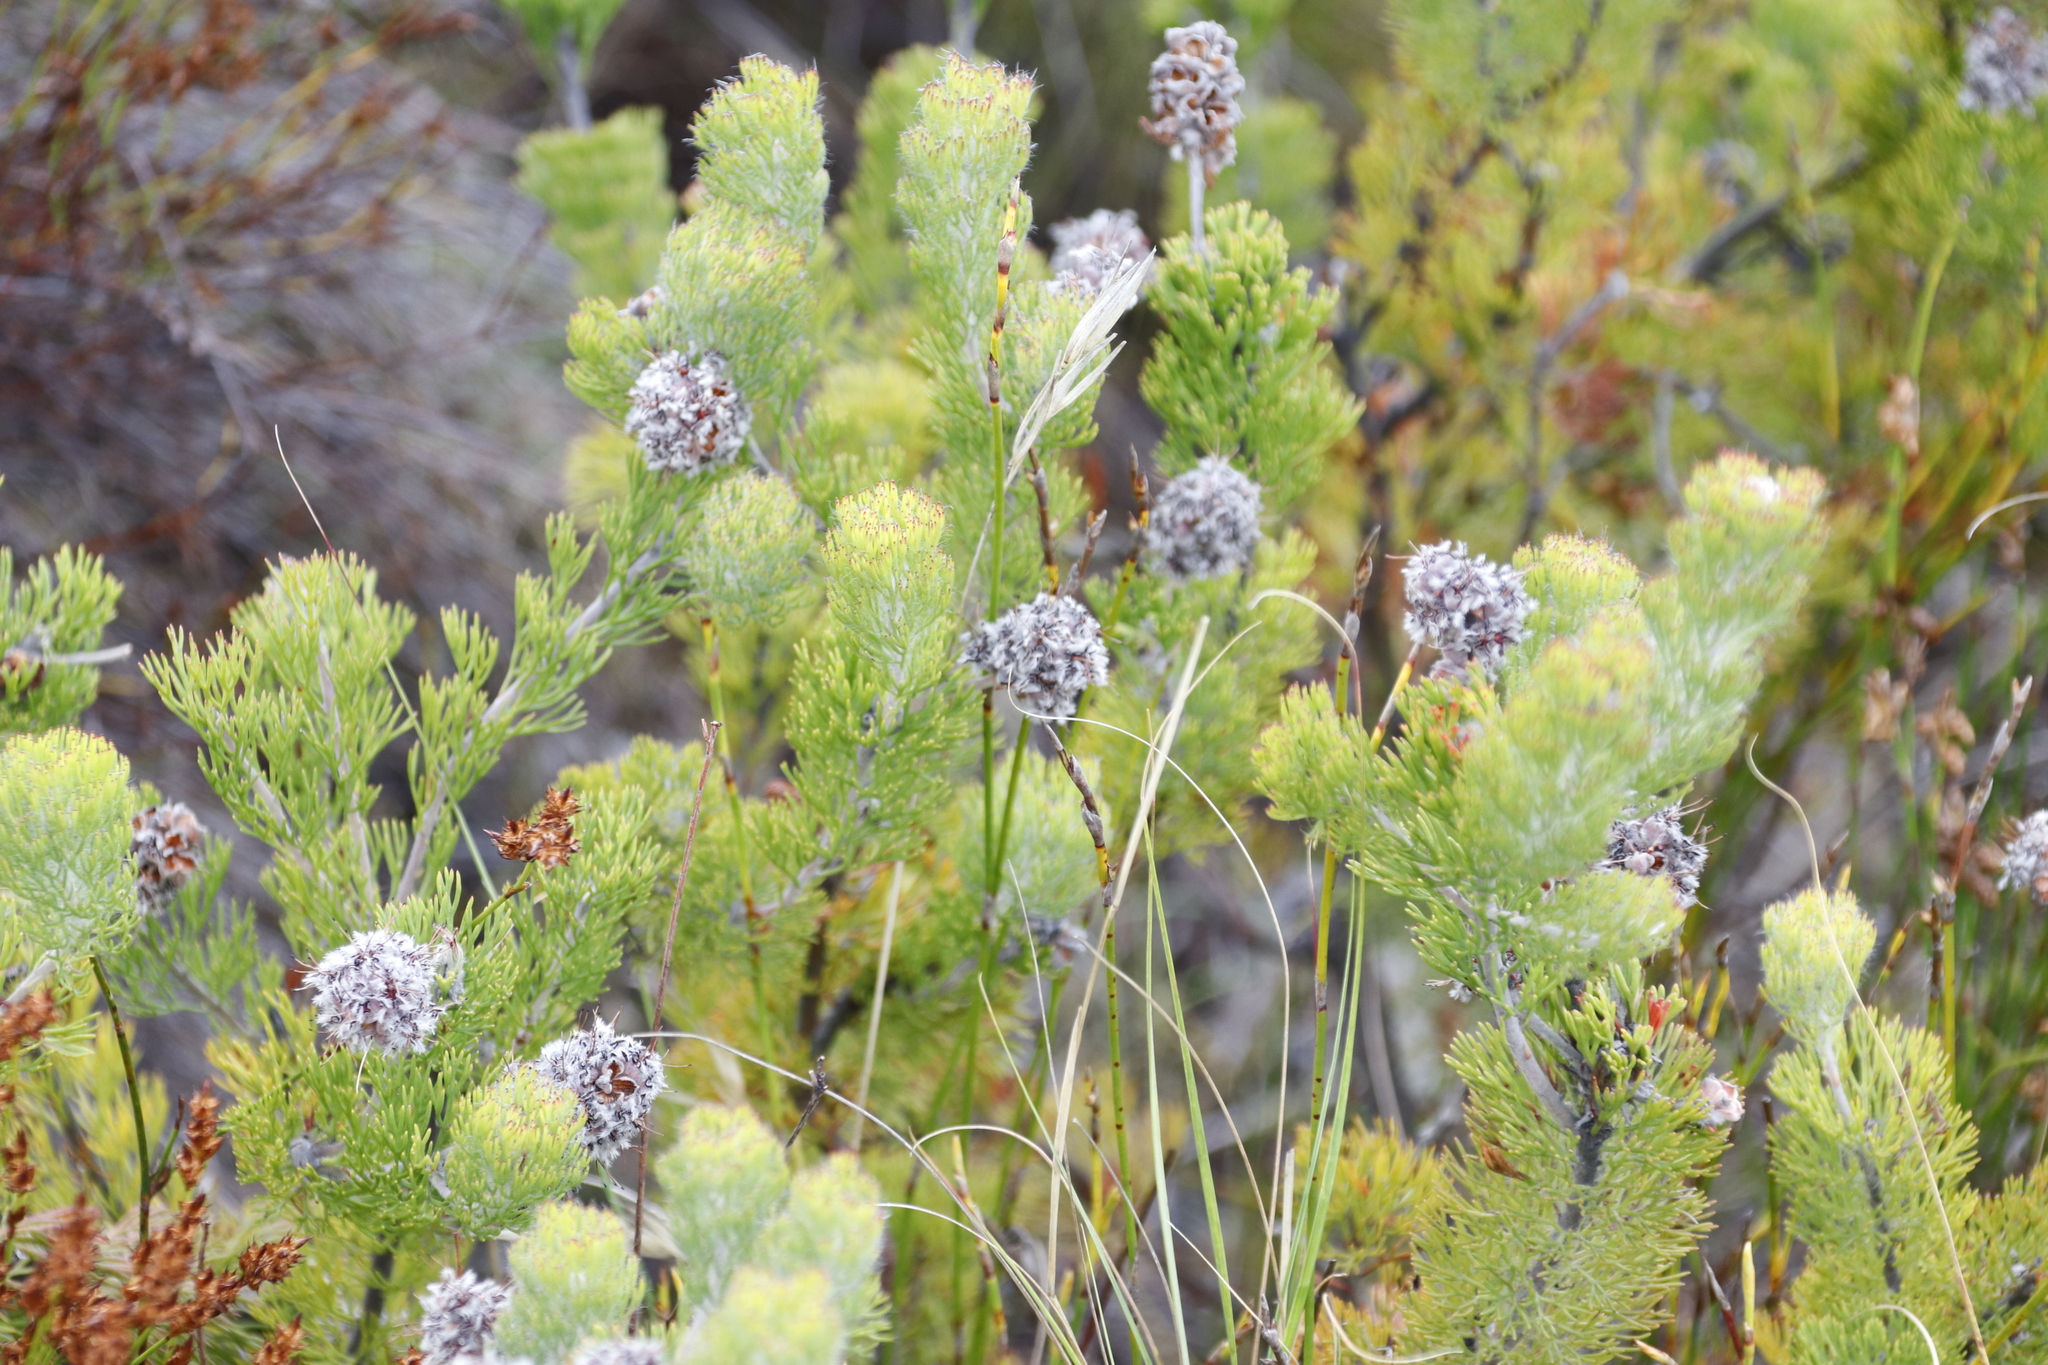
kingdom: Plantae
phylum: Tracheophyta
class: Magnoliopsida
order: Proteales
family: Proteaceae
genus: Paranomus
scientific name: Paranomus abrotanifolius
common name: Bredasdorp sceptre
